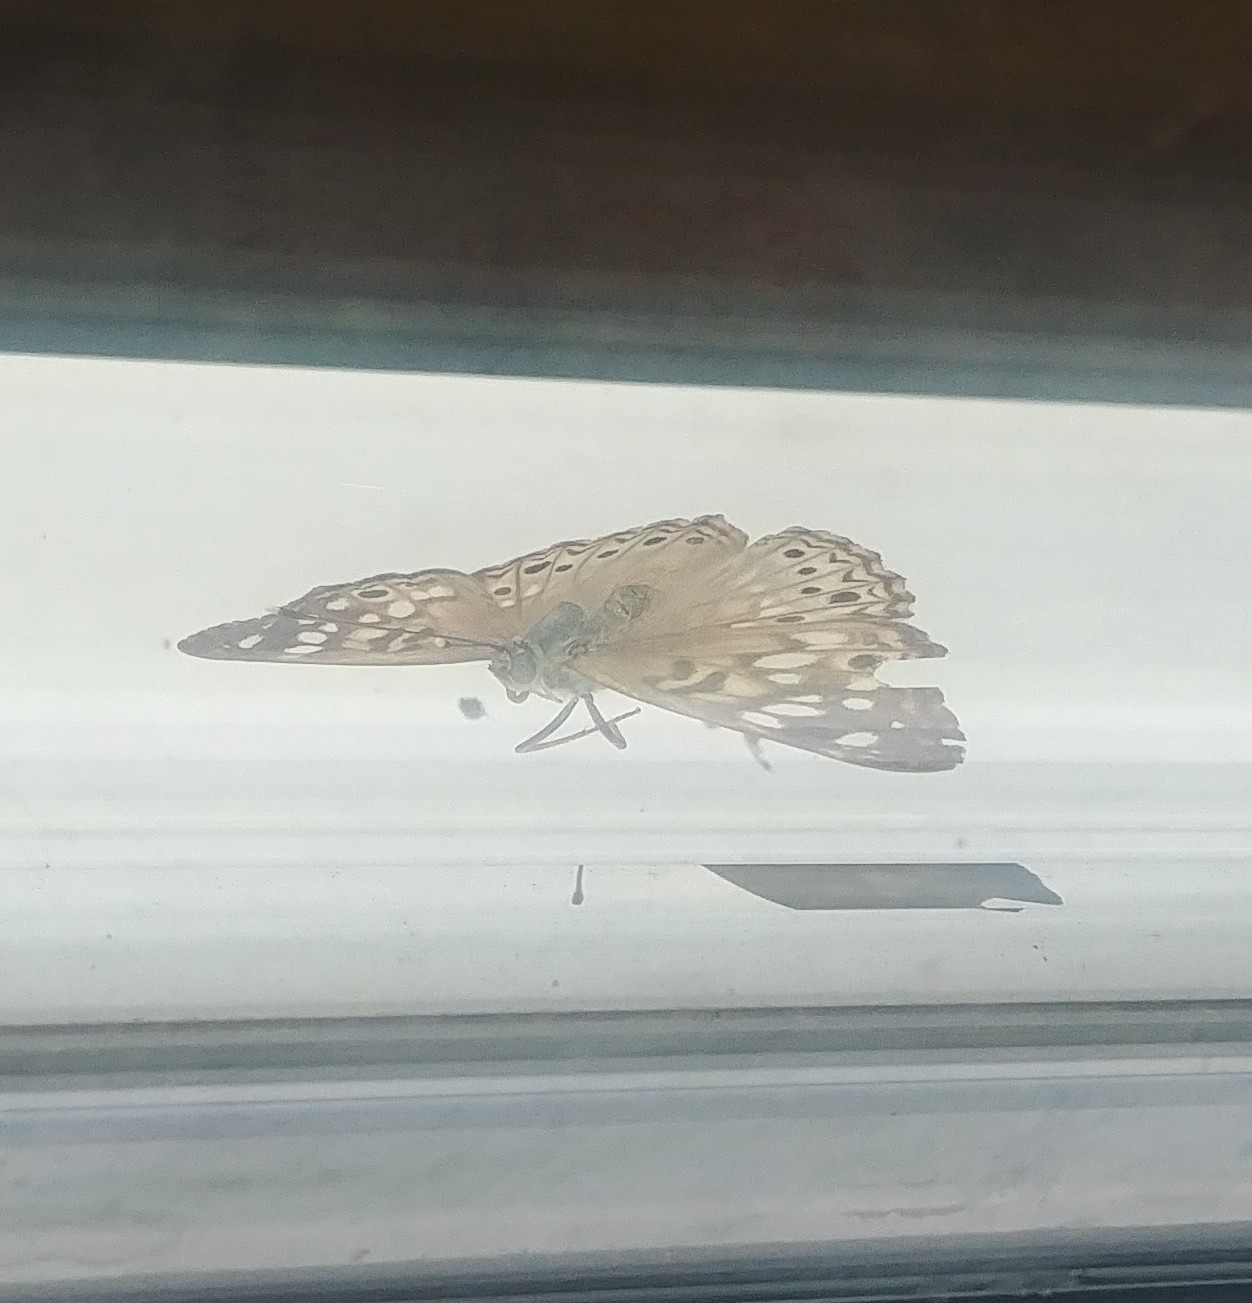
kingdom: Animalia
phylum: Arthropoda
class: Insecta
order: Lepidoptera
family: Nymphalidae
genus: Asterocampa
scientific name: Asterocampa celtis
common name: Hackberry emperor
